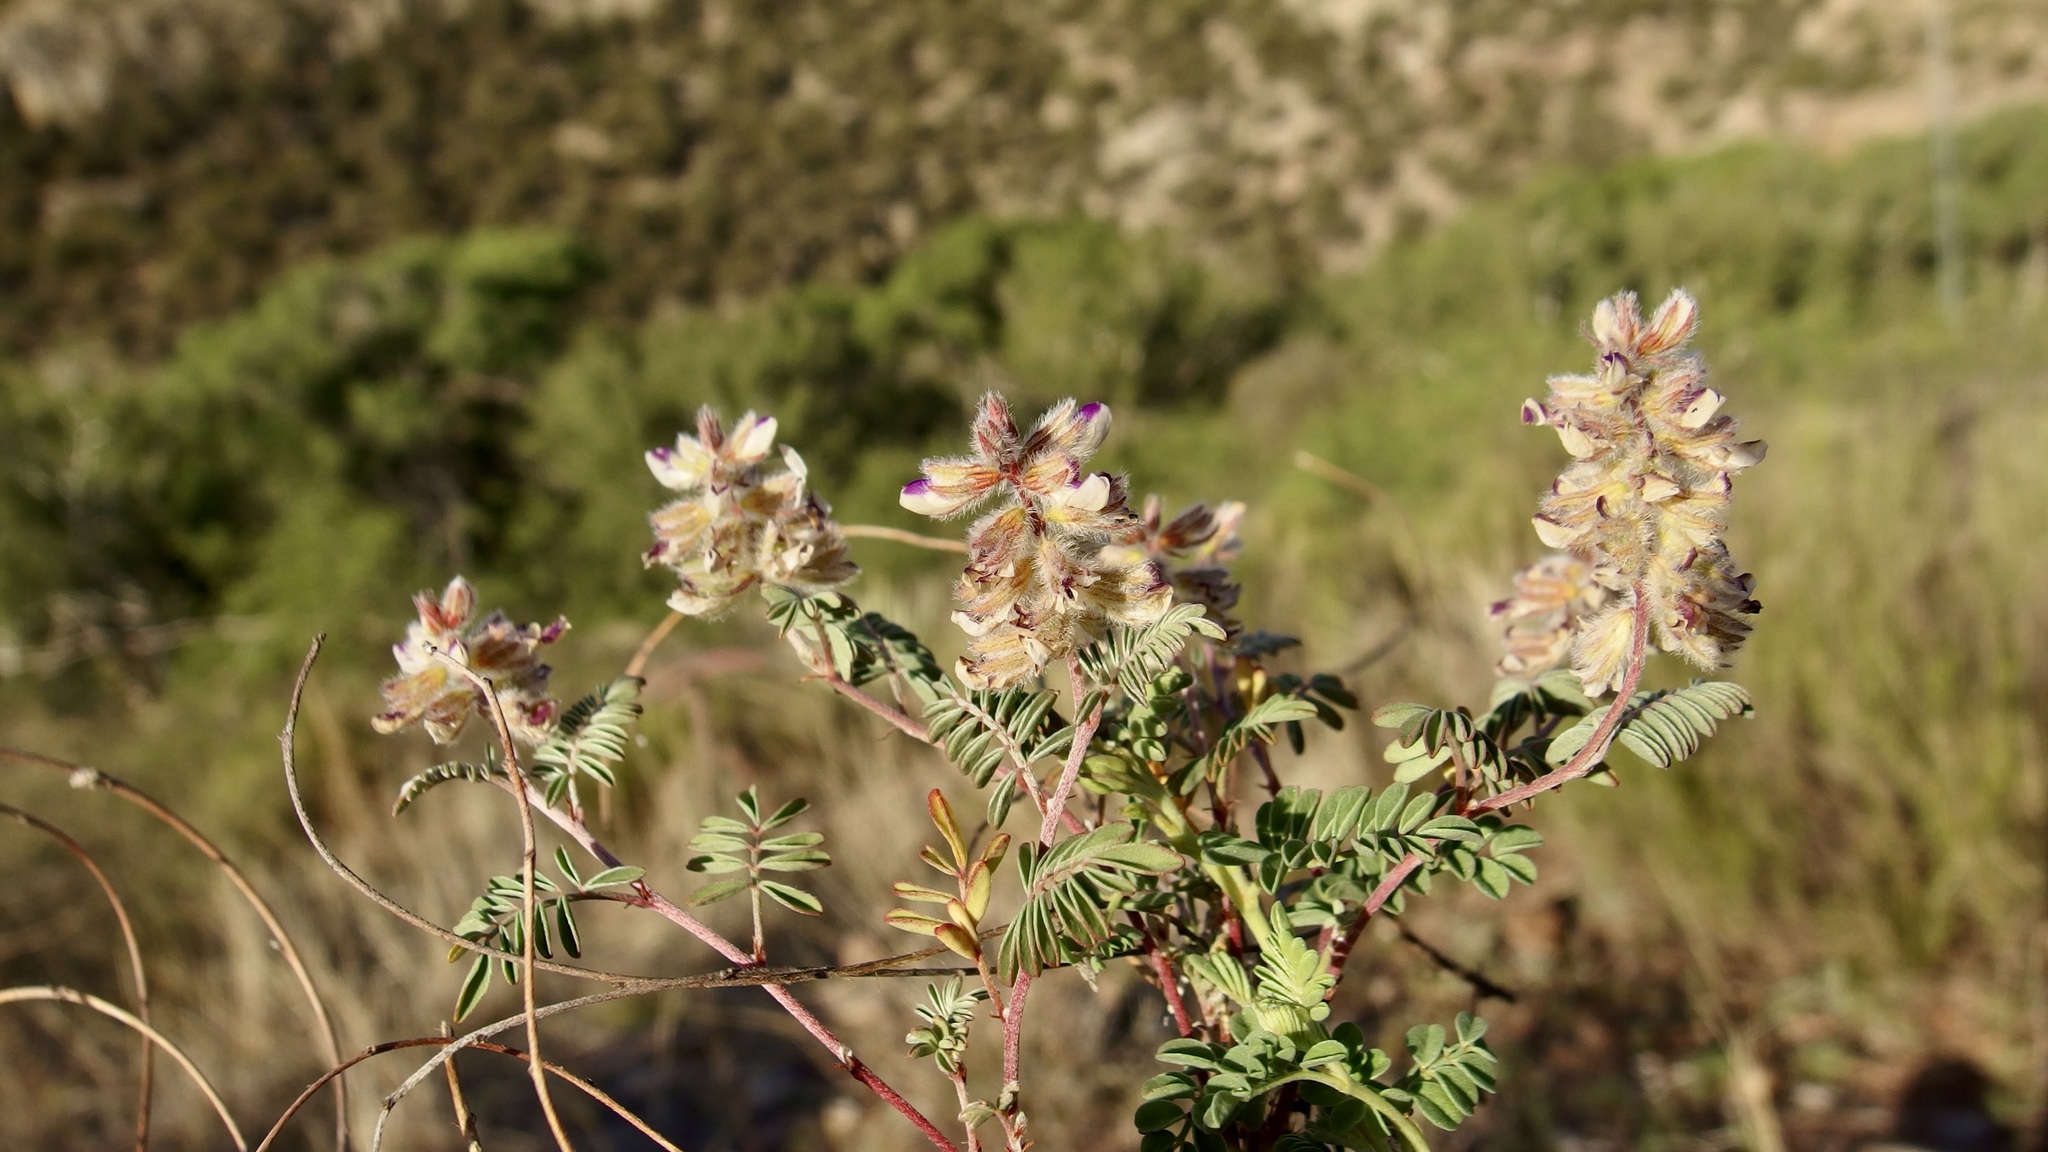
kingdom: Plantae
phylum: Tracheophyta
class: Magnoliopsida
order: Fabales
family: Fabaceae
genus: Marina
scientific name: Marina calycosa
